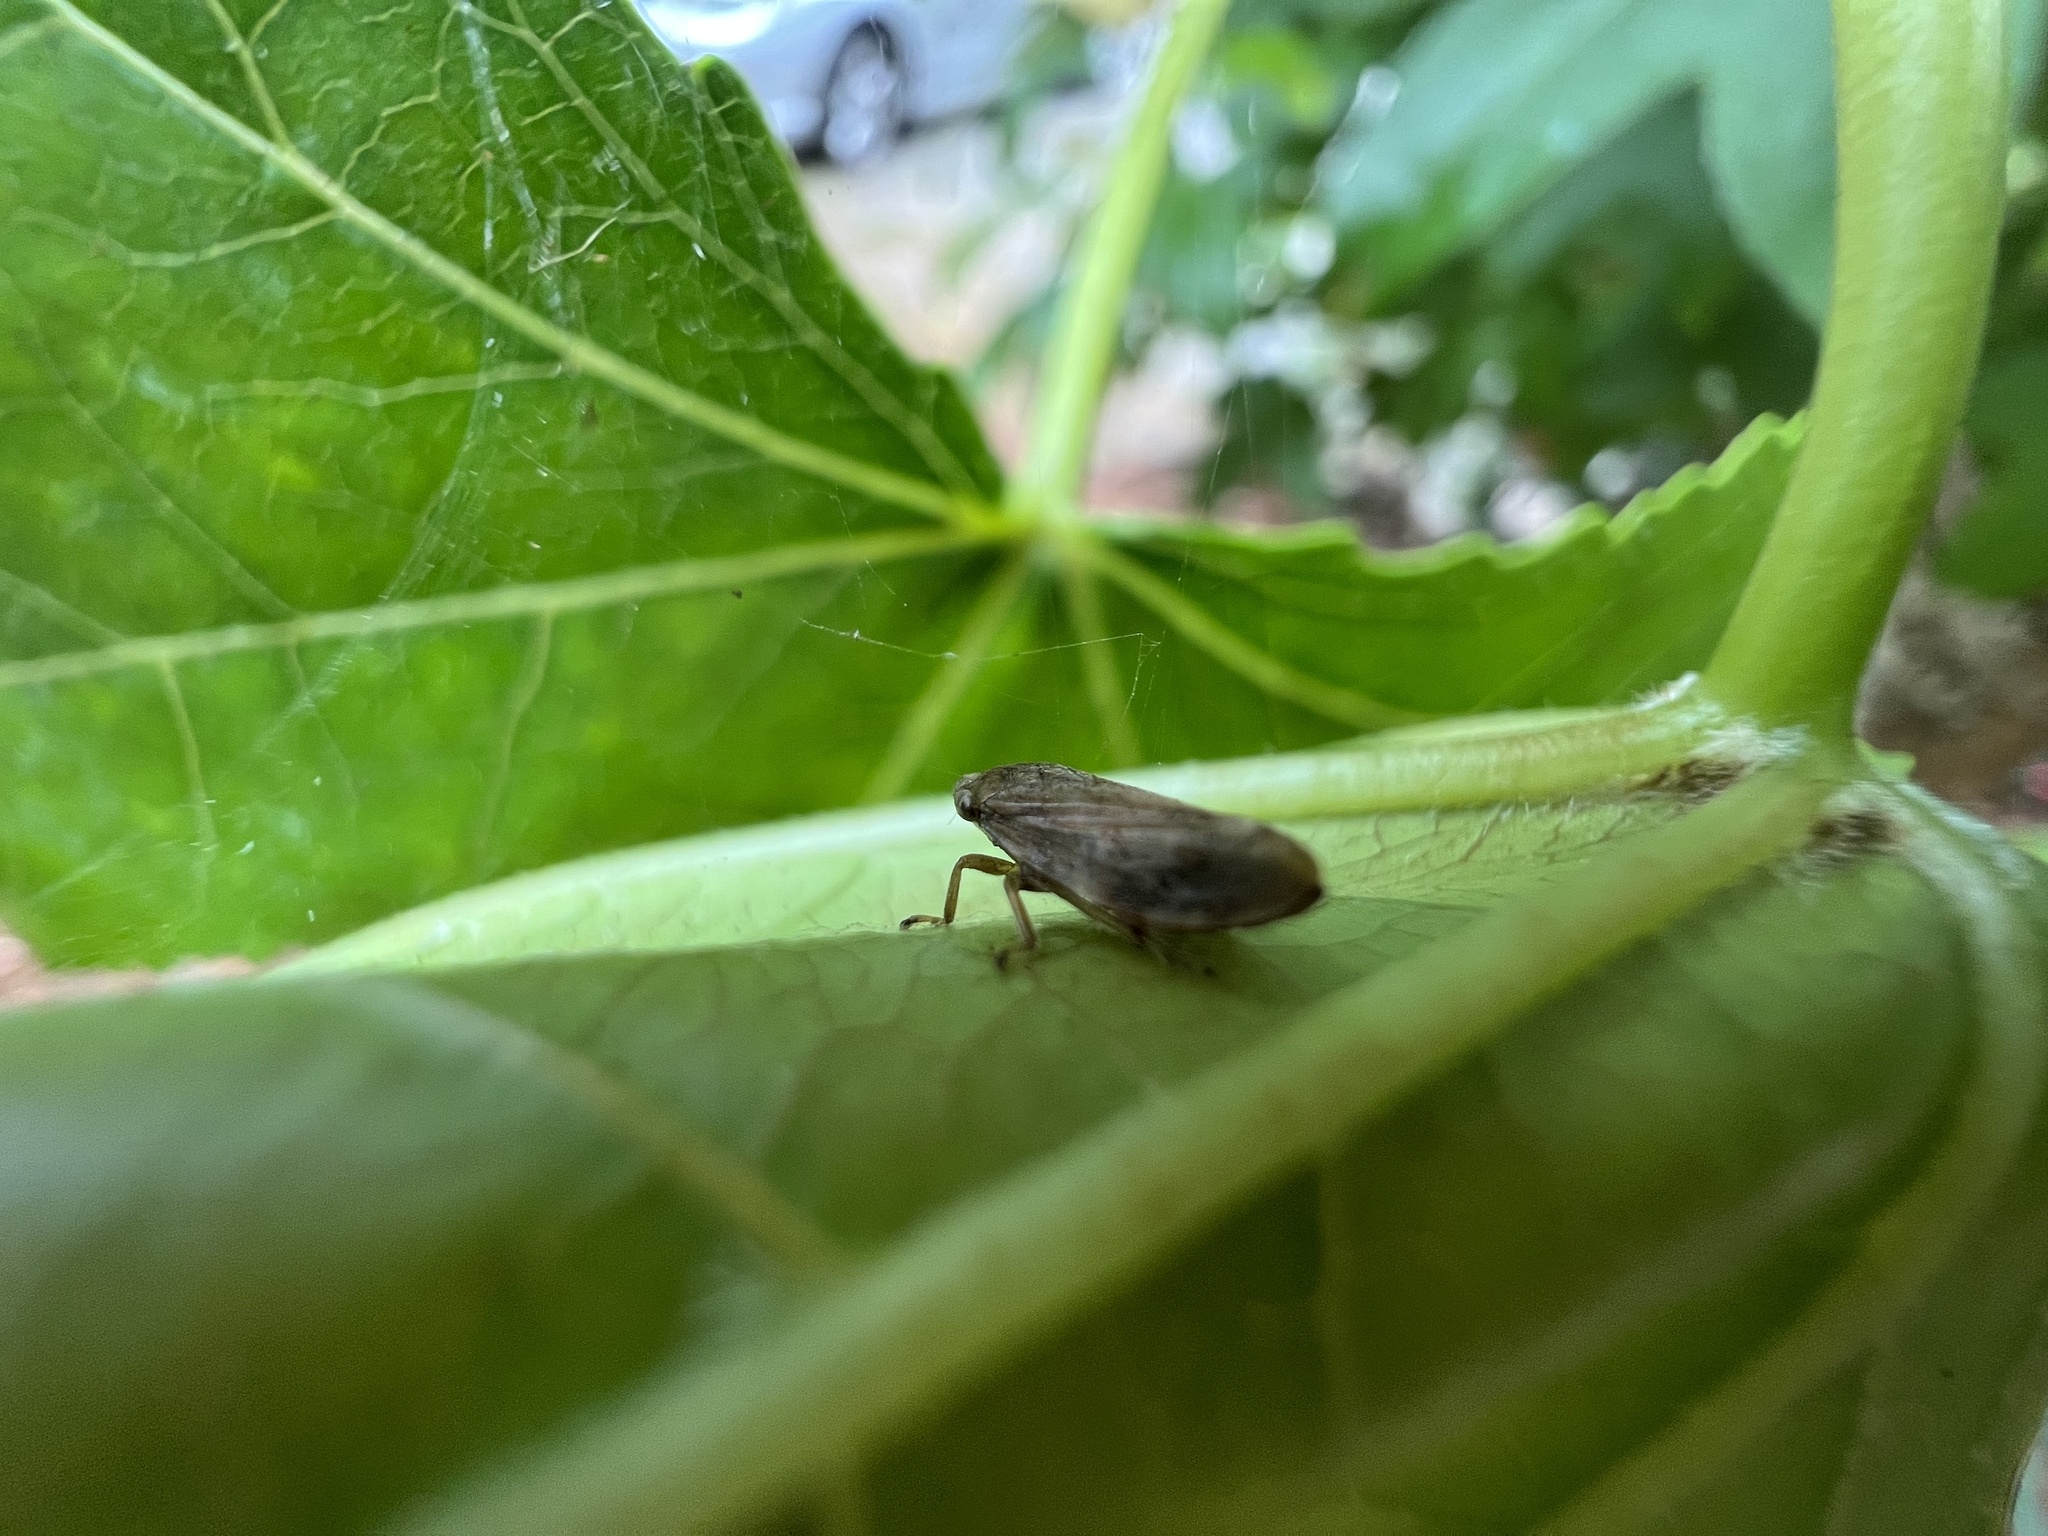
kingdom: Animalia
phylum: Arthropoda
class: Insecta
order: Hemiptera
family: Aphrophoridae
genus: Philaenus
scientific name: Philaenus spumarius
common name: Meadow spittlebug
